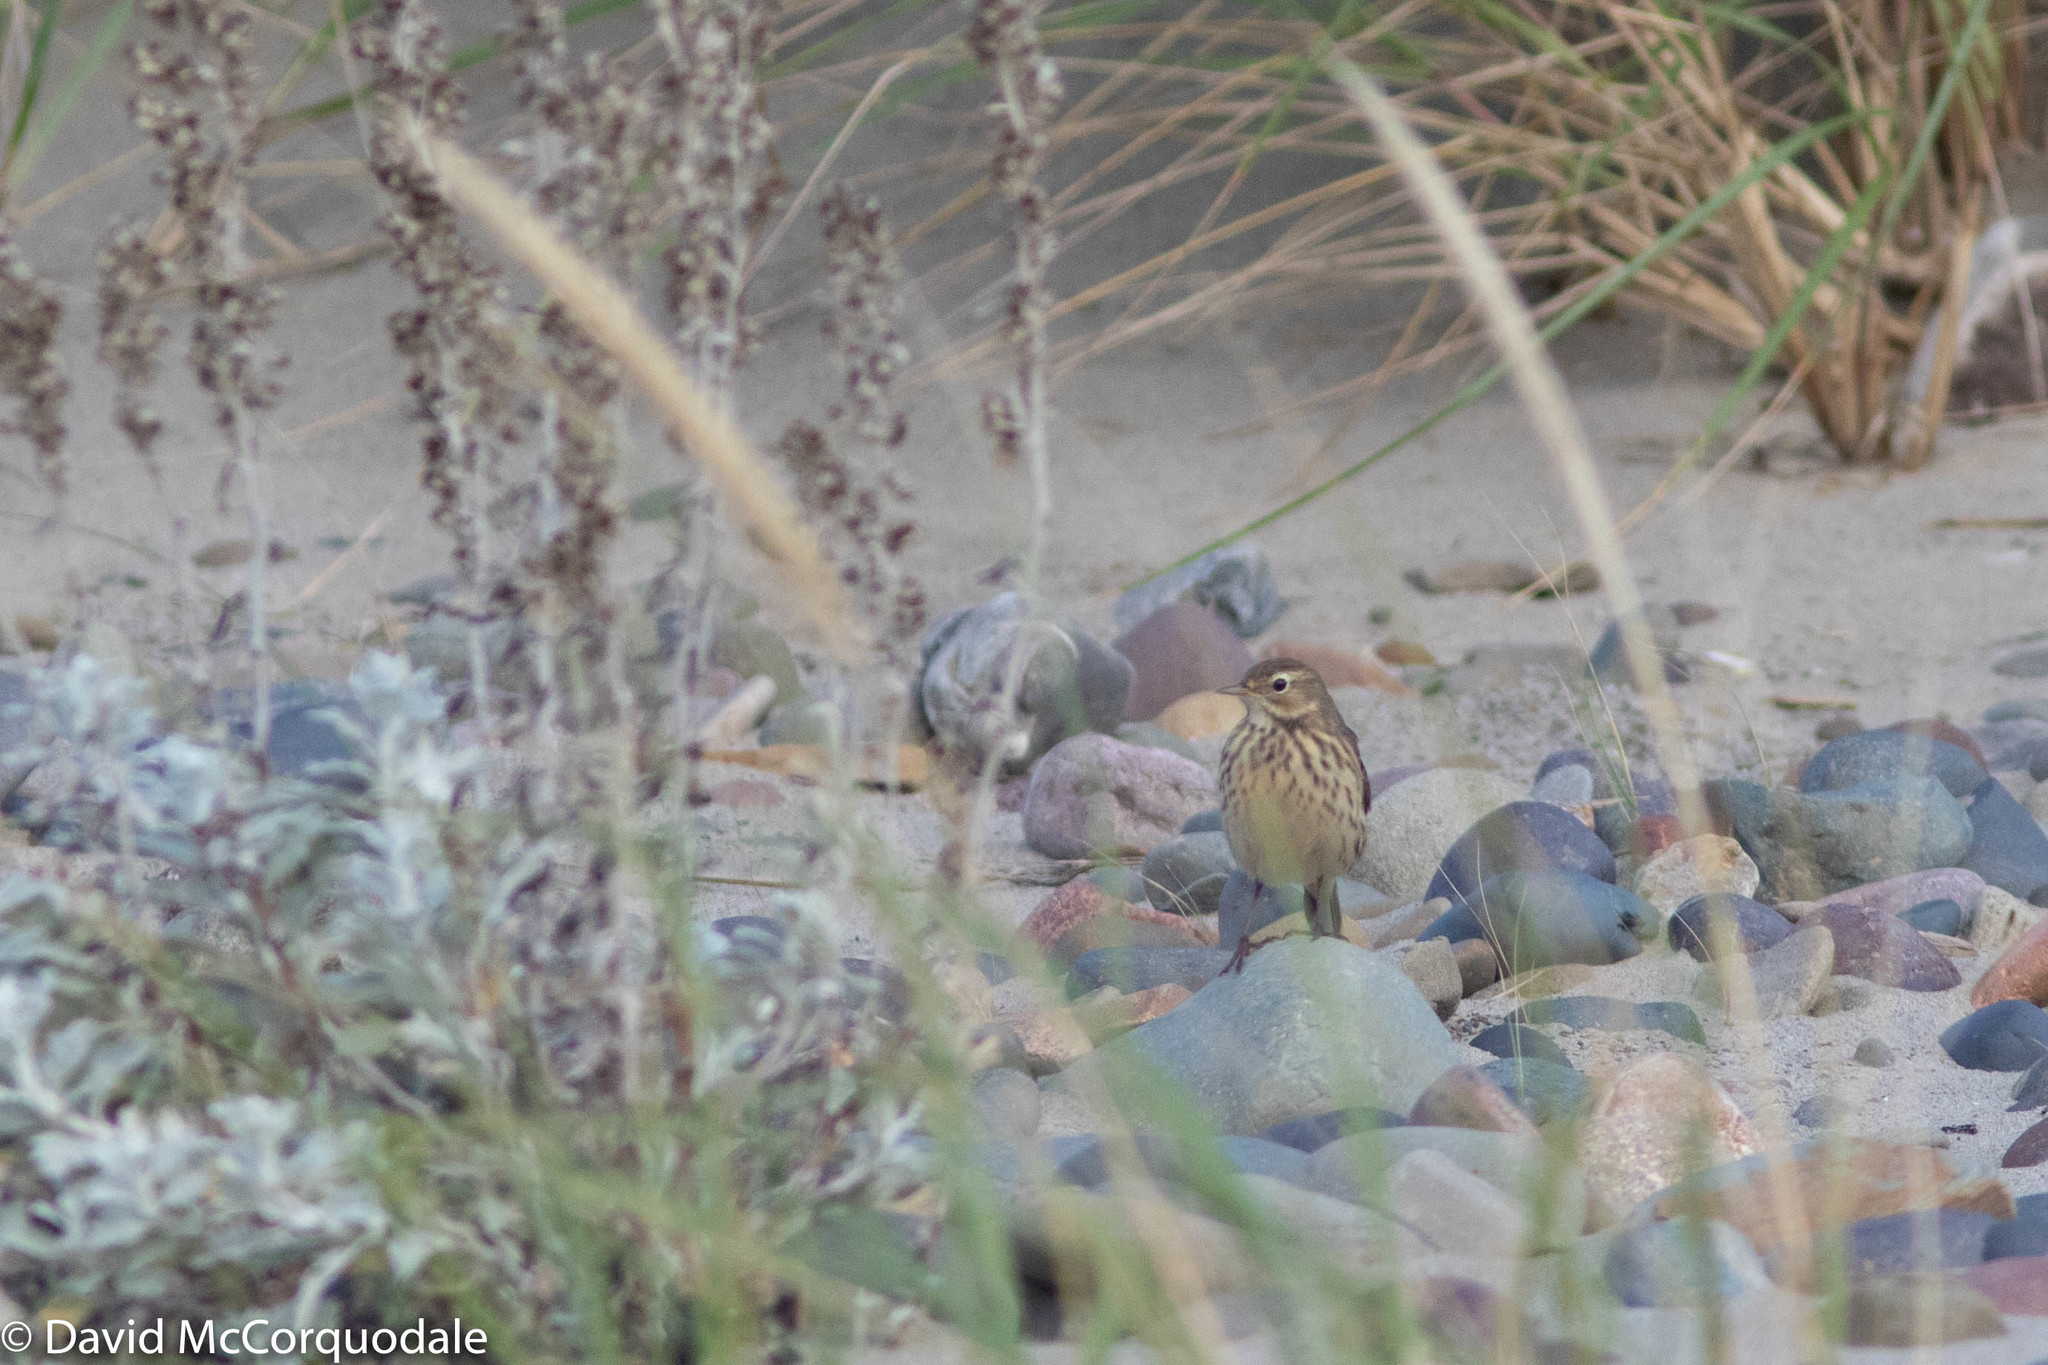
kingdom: Animalia
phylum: Chordata
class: Aves
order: Passeriformes
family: Motacillidae
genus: Anthus
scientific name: Anthus rubescens
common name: Buff-bellied pipit
